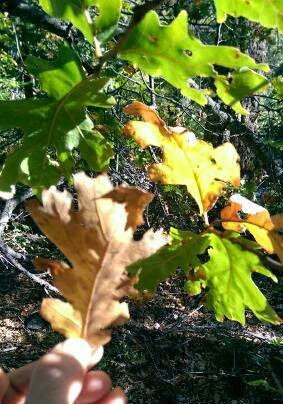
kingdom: Plantae
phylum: Tracheophyta
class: Magnoliopsida
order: Fagales
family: Fagaceae
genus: Quercus
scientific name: Quercus kelloggii
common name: California black oak
